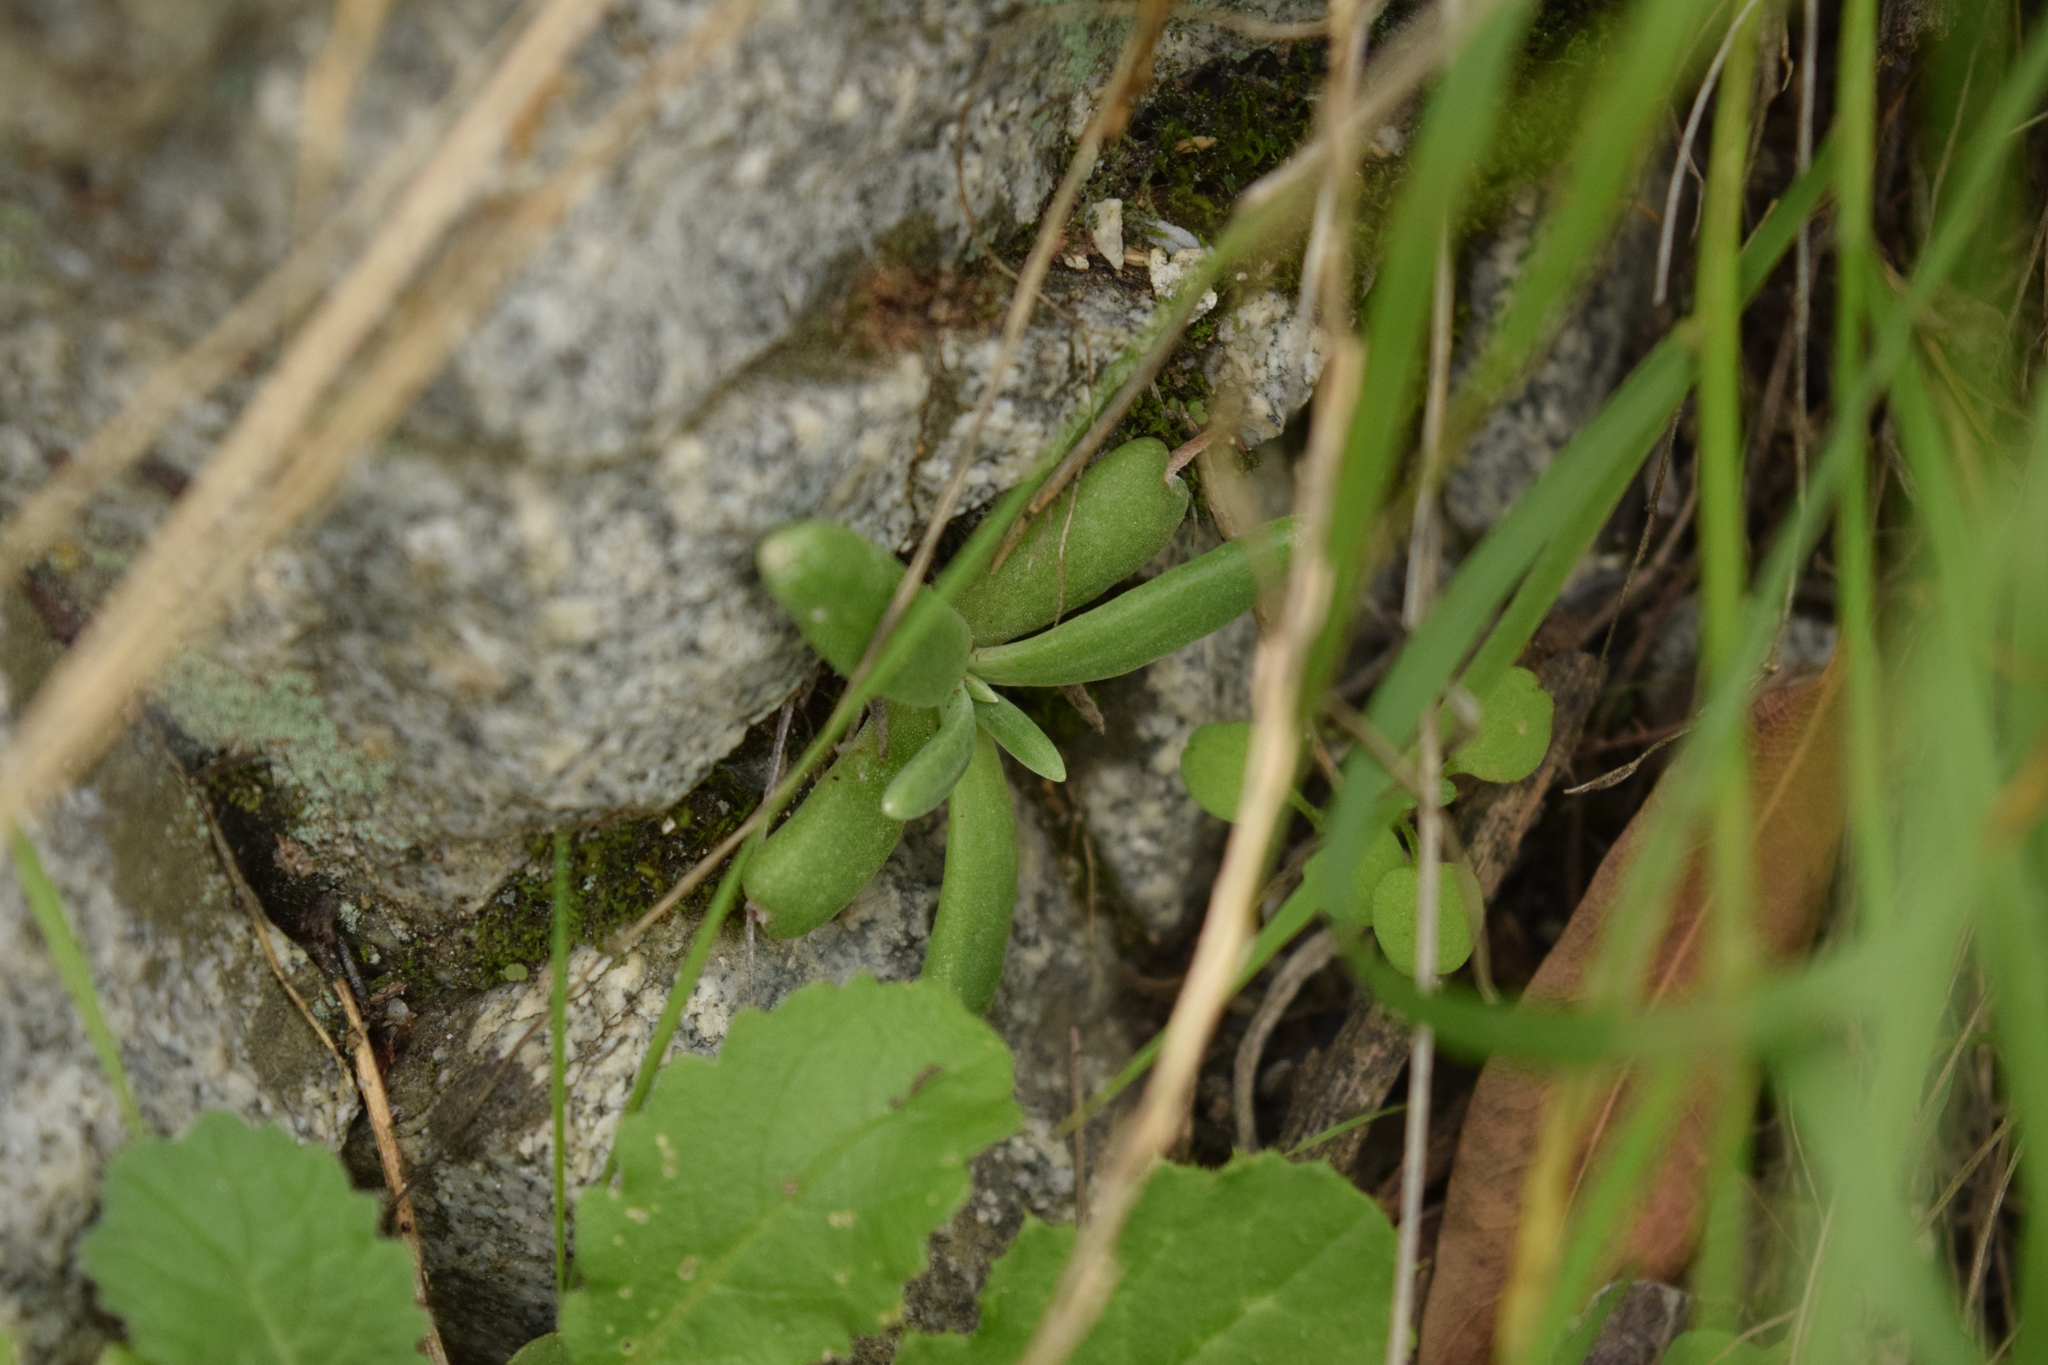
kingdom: Plantae
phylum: Tracheophyta
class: Magnoliopsida
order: Saxifragales
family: Crassulaceae
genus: Dudleya
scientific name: Dudleya densiflora
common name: San gabriel mountains dudleya
